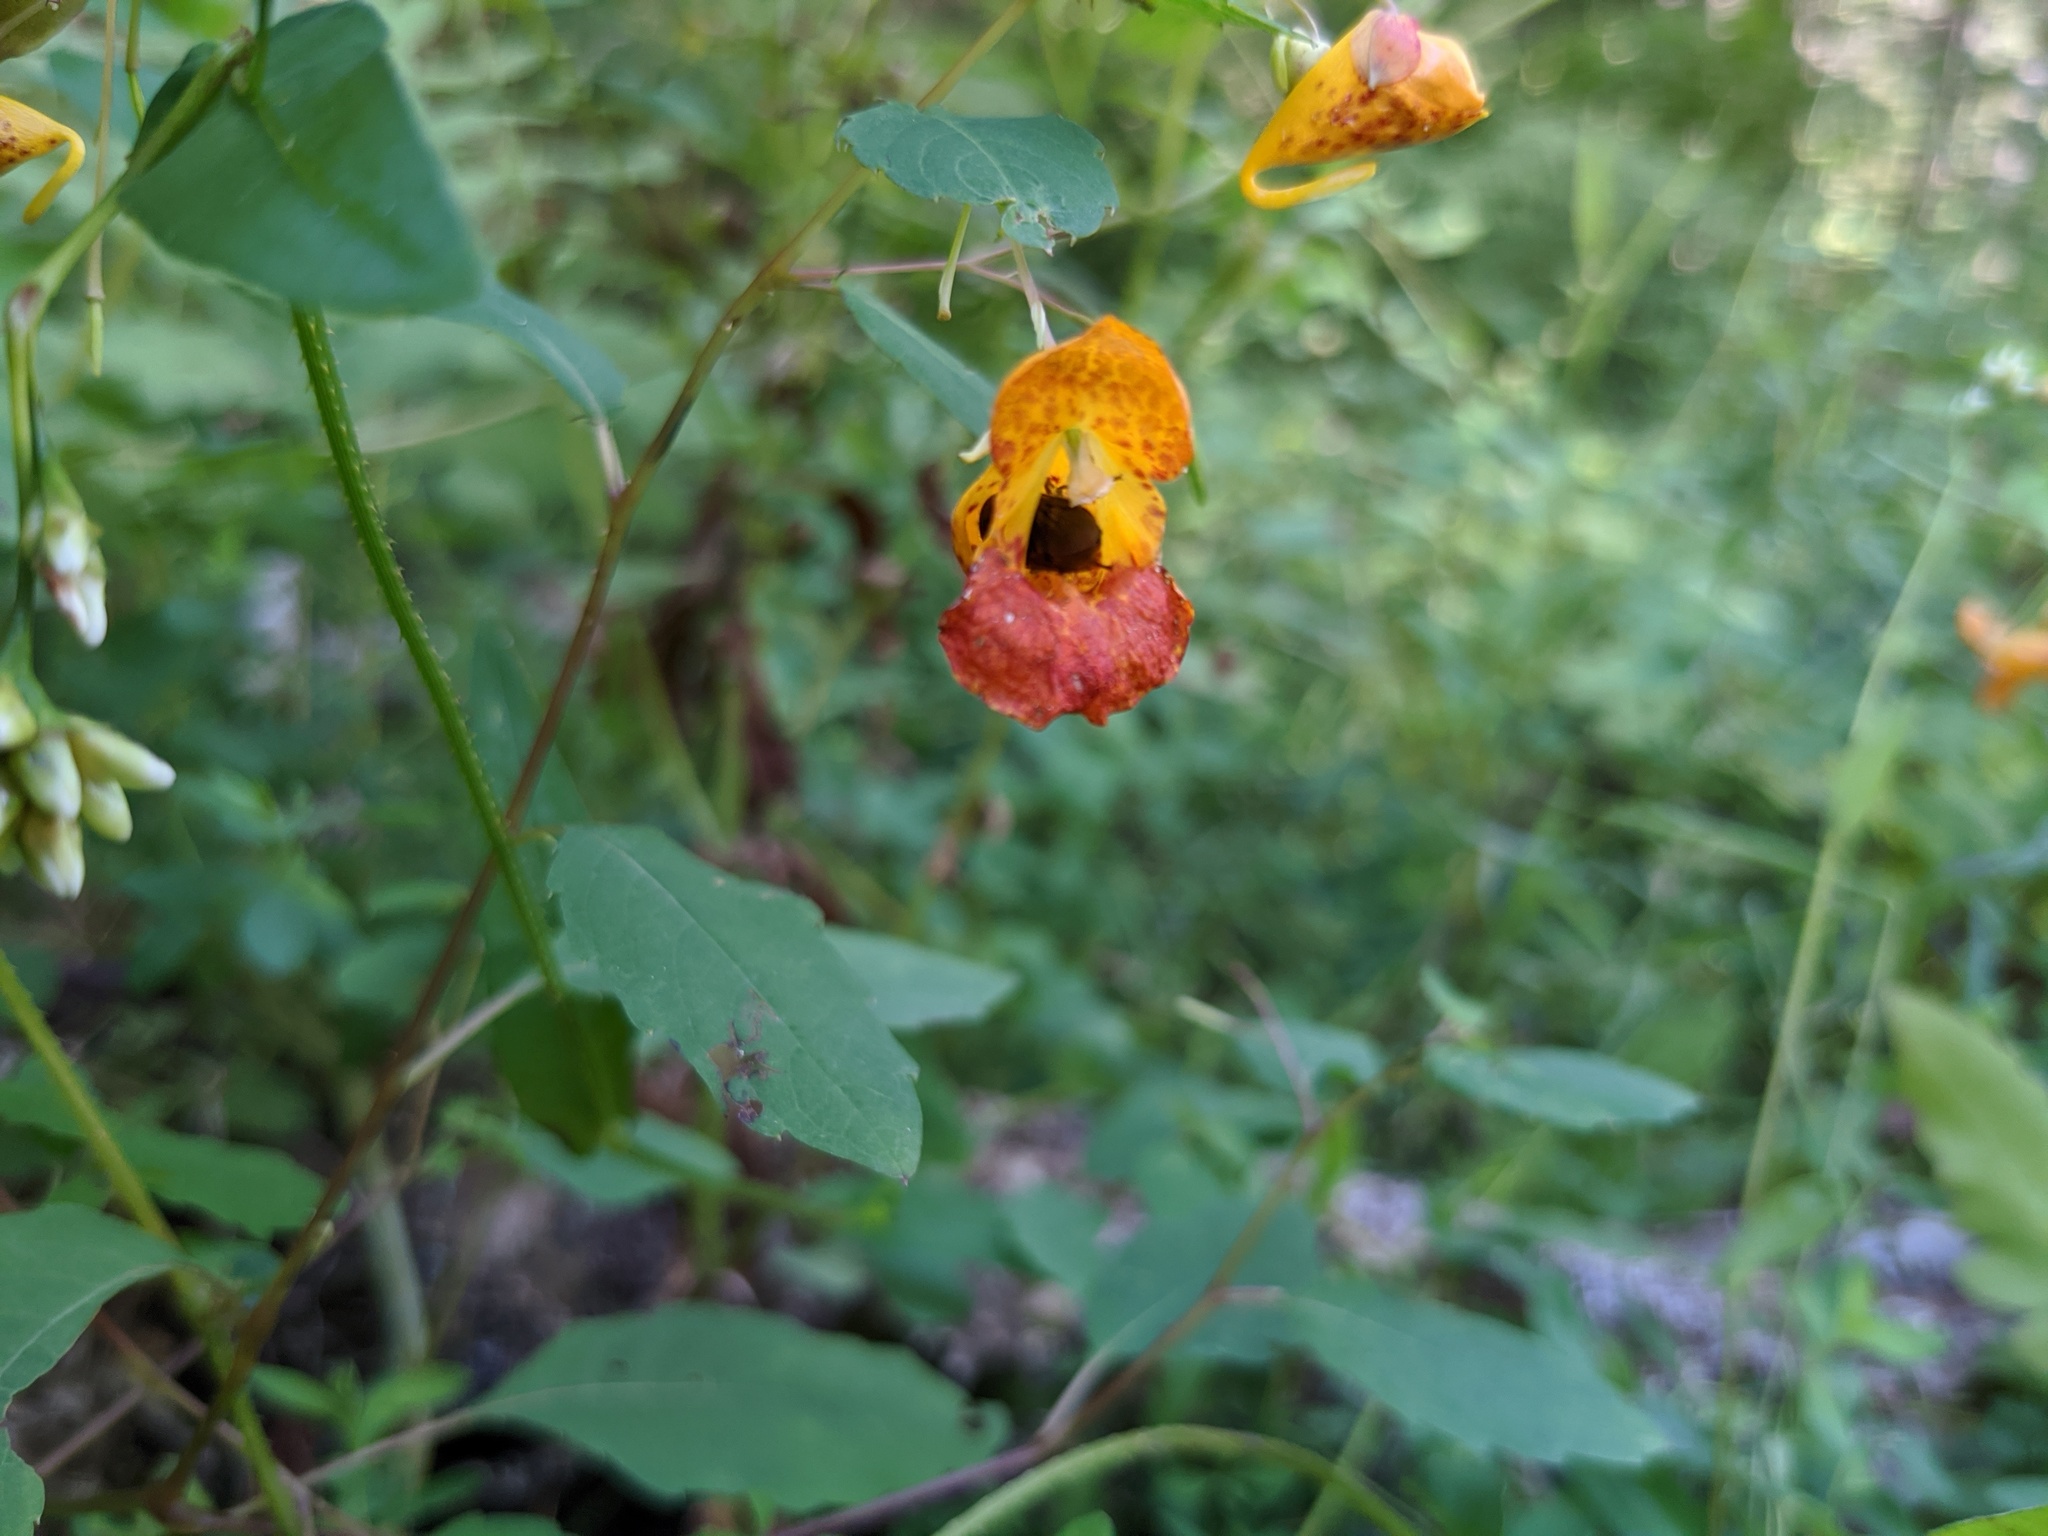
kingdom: Animalia
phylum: Arthropoda
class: Insecta
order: Diptera
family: Syrphidae
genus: Rhingia
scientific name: Rhingia nasica
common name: American snout fly
